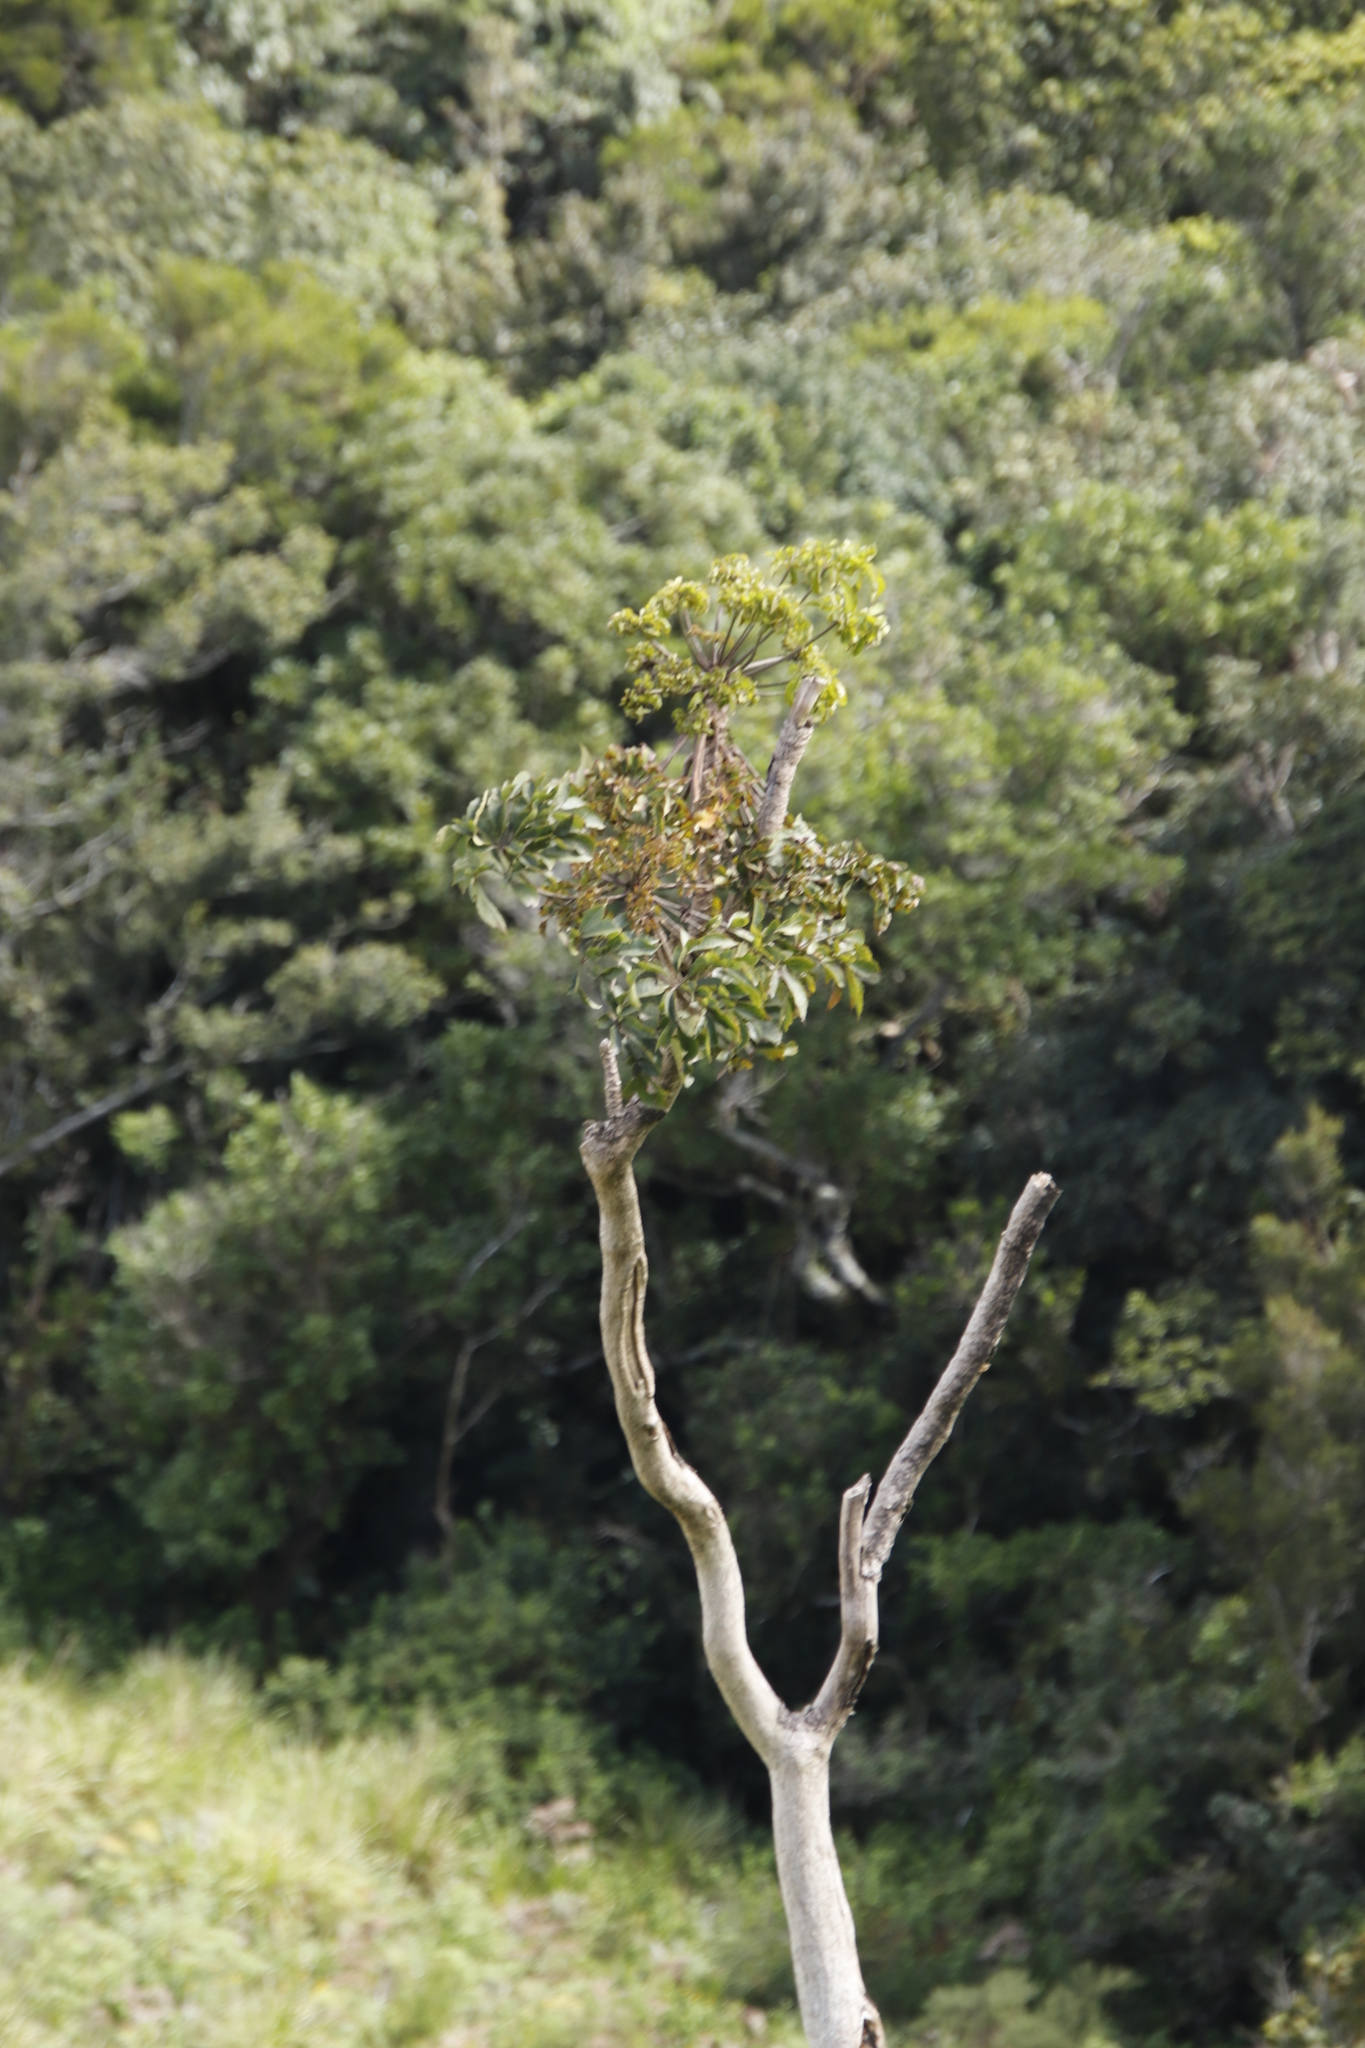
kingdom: Plantae
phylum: Tracheophyta
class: Magnoliopsida
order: Apiales
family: Araliaceae
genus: Cussonia
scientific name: Cussonia spicata
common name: Common cabbagetree
